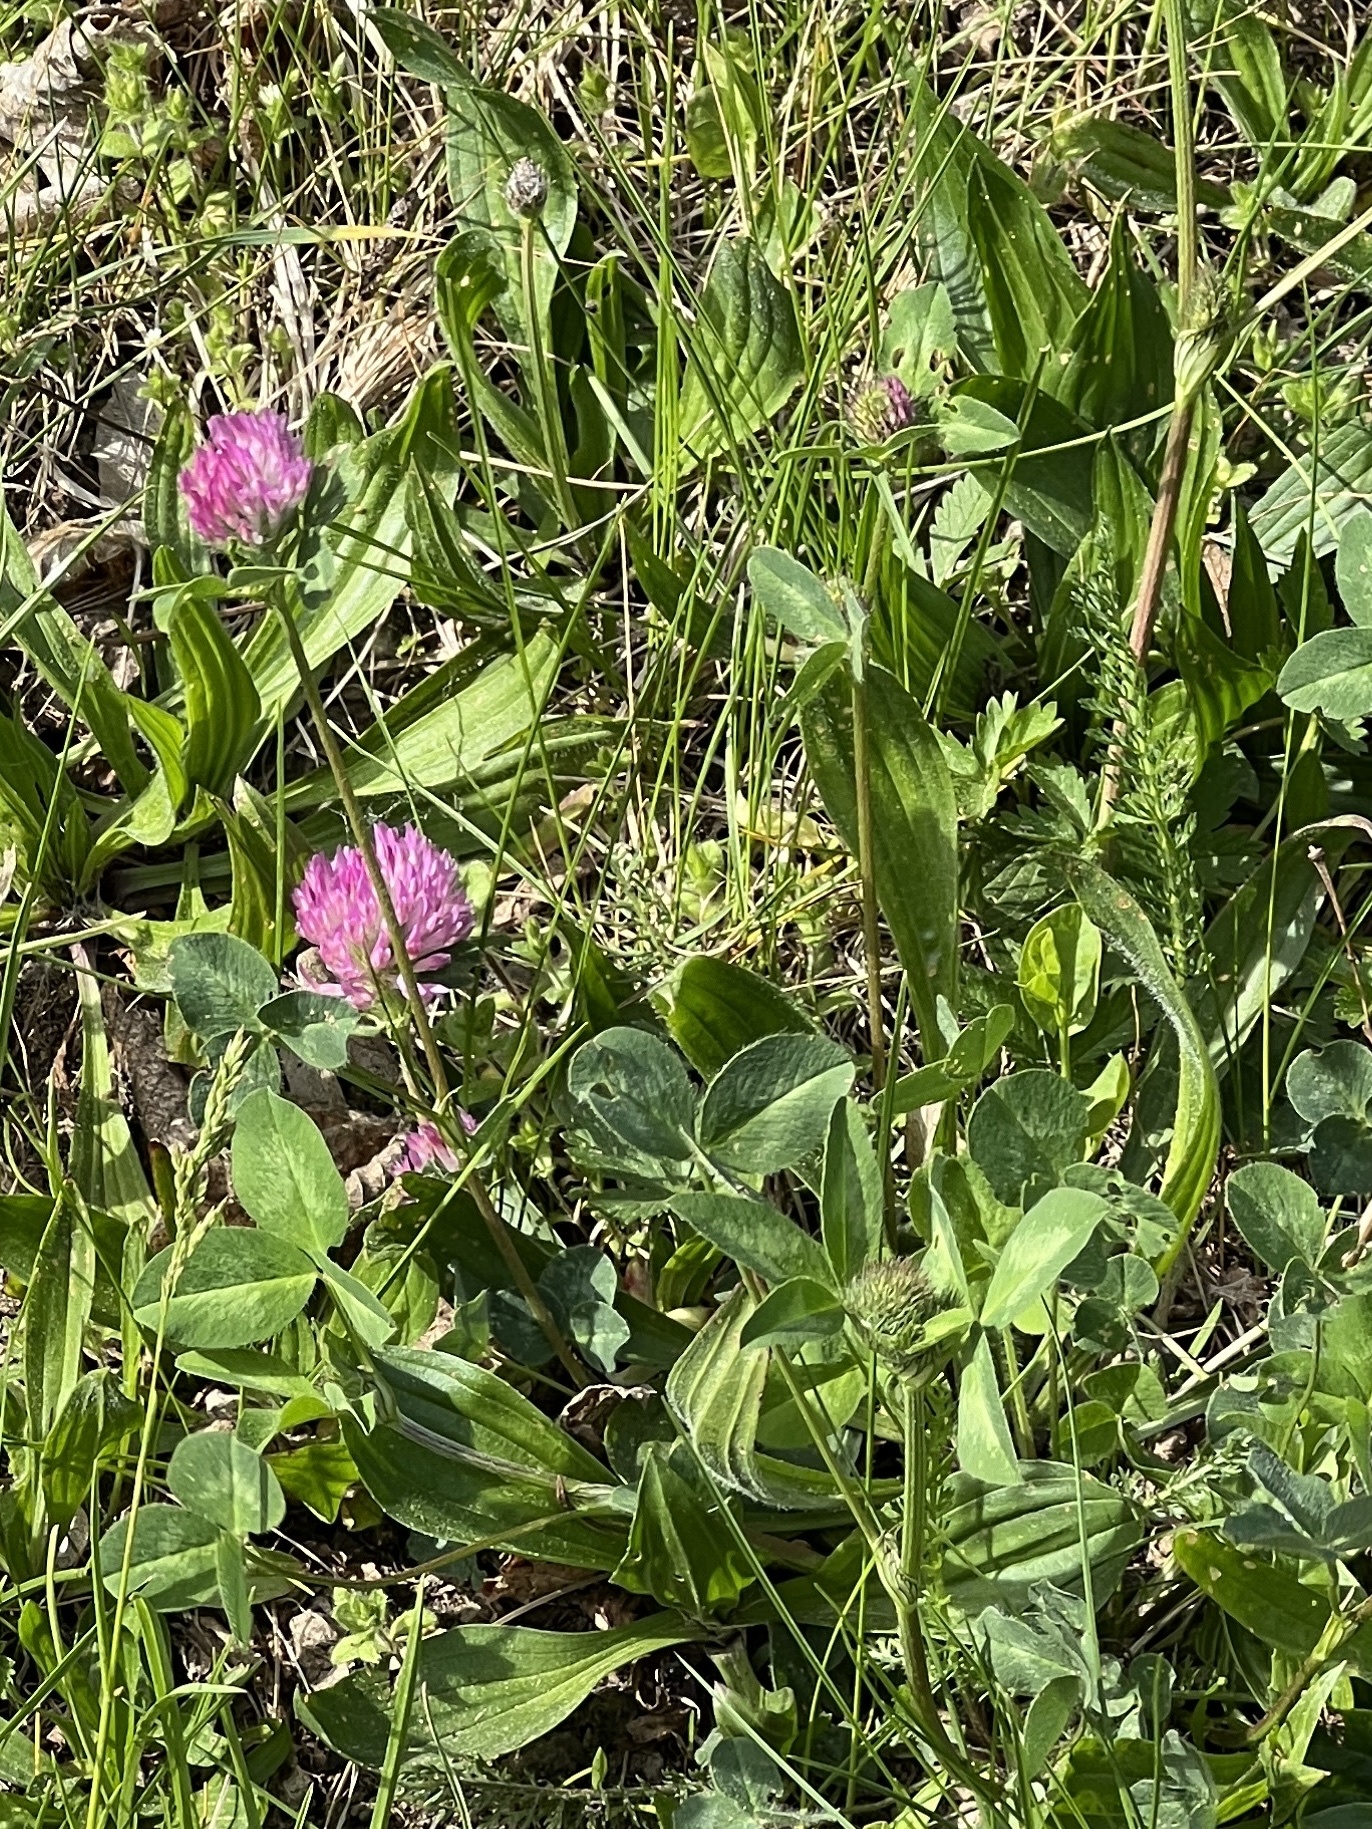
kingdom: Plantae
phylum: Tracheophyta
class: Magnoliopsida
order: Fabales
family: Fabaceae
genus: Trifolium
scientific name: Trifolium pratense
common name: Red clover
